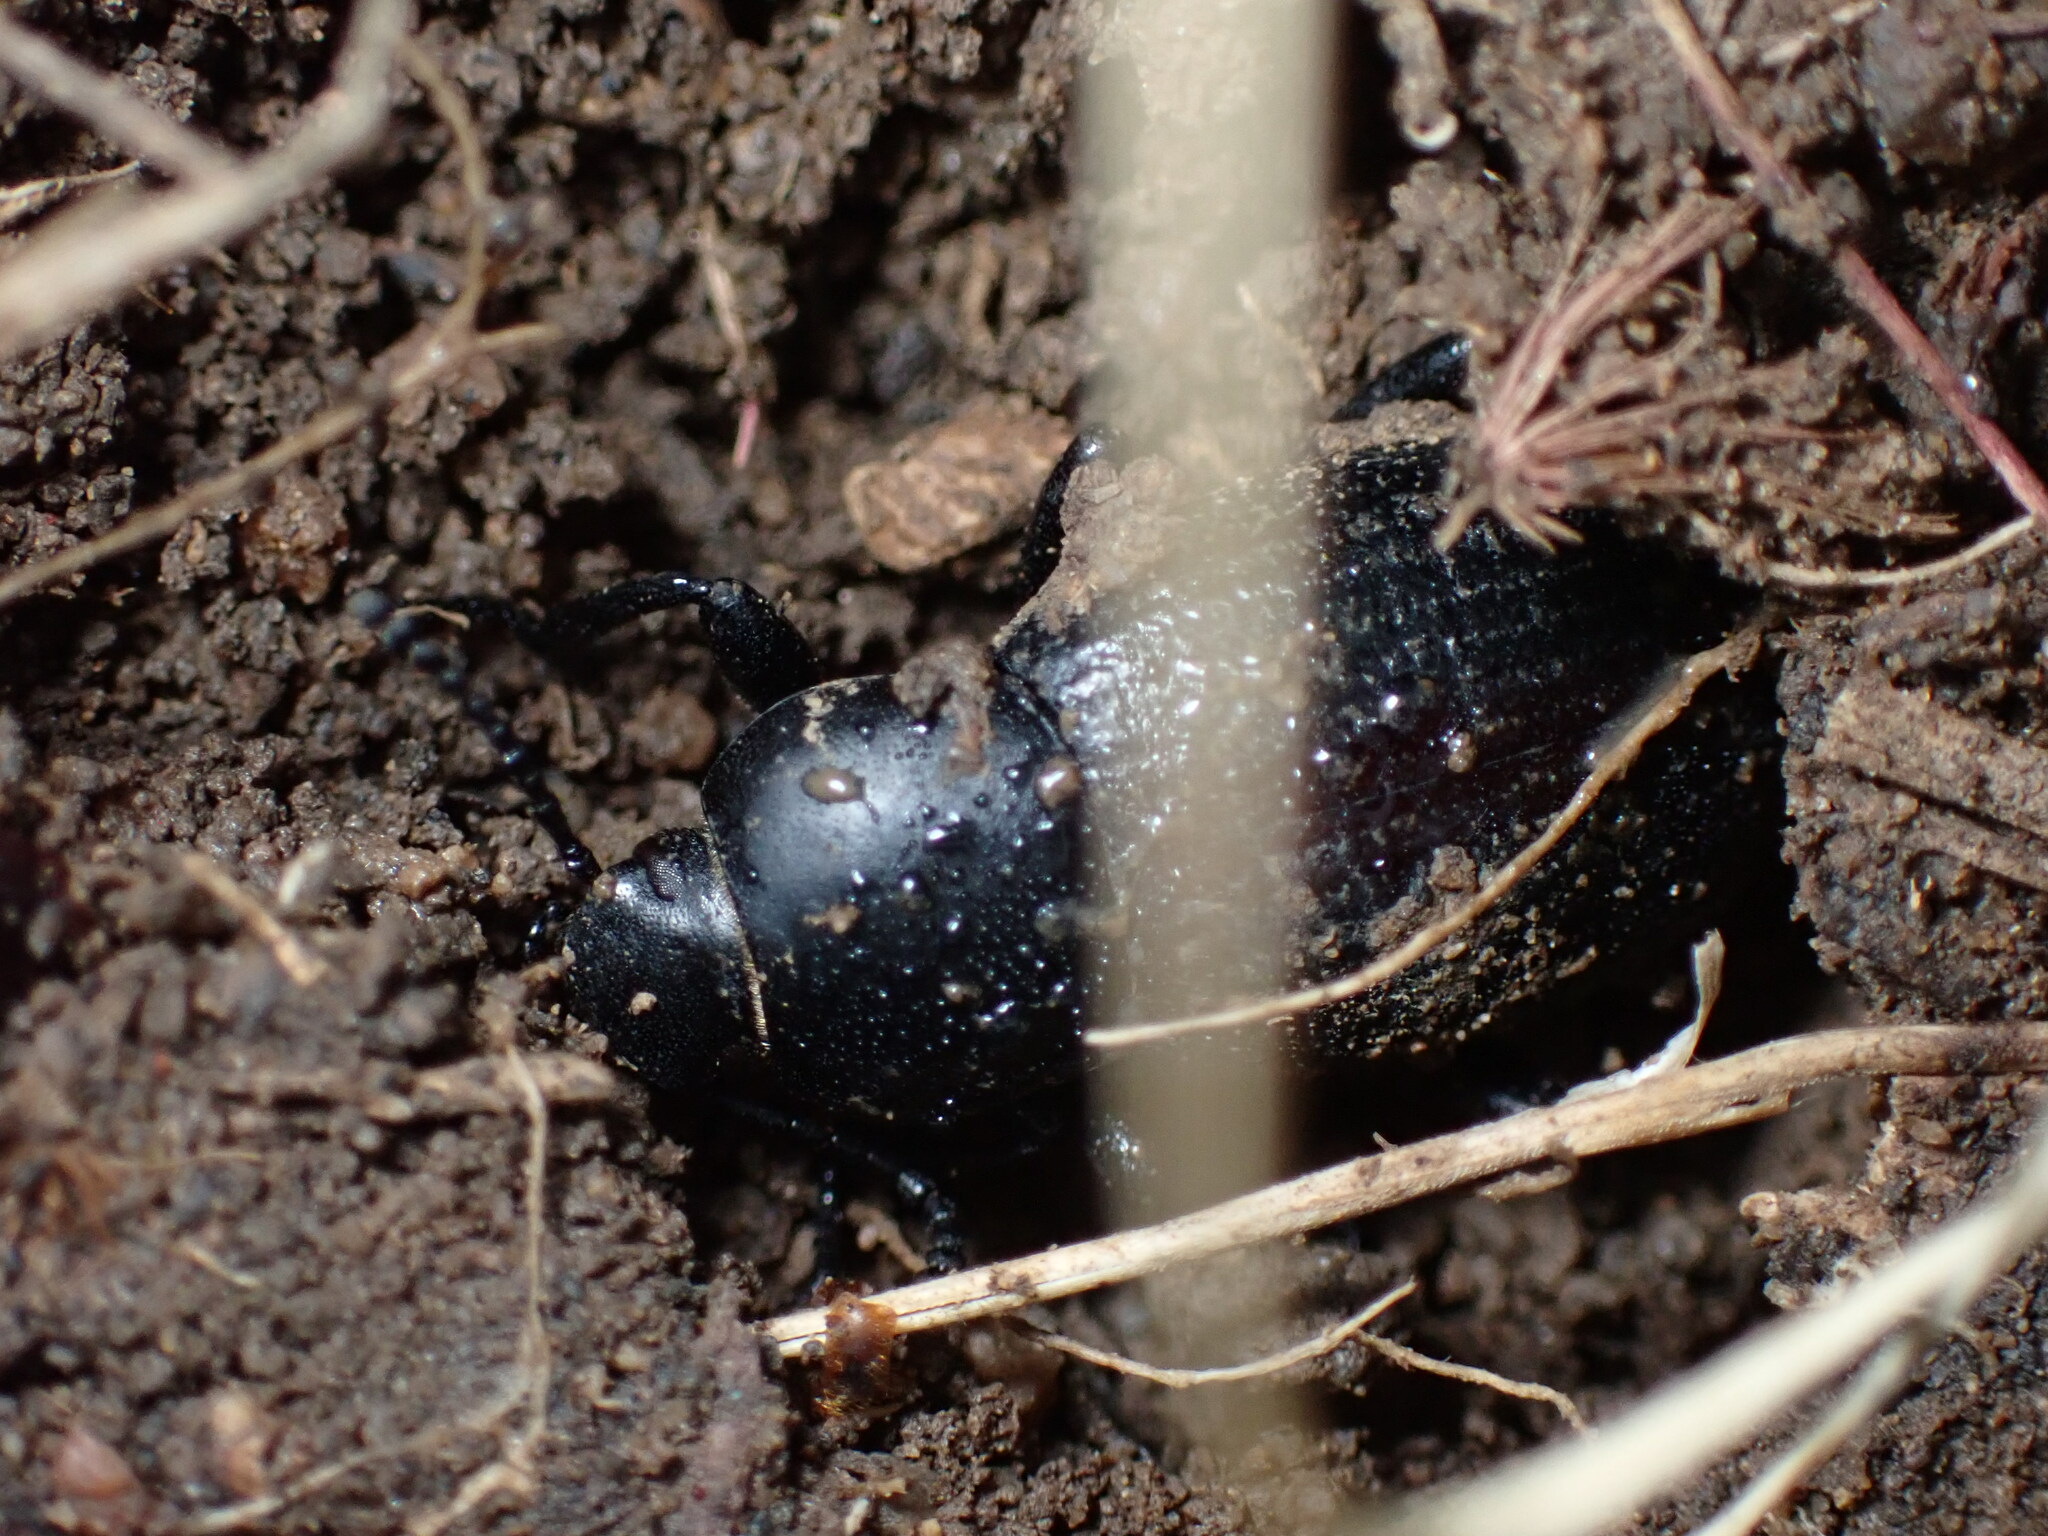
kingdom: Animalia
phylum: Arthropoda
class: Insecta
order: Coleoptera
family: Tenebrionidae
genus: Eleodes
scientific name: Eleodes carbonaria
